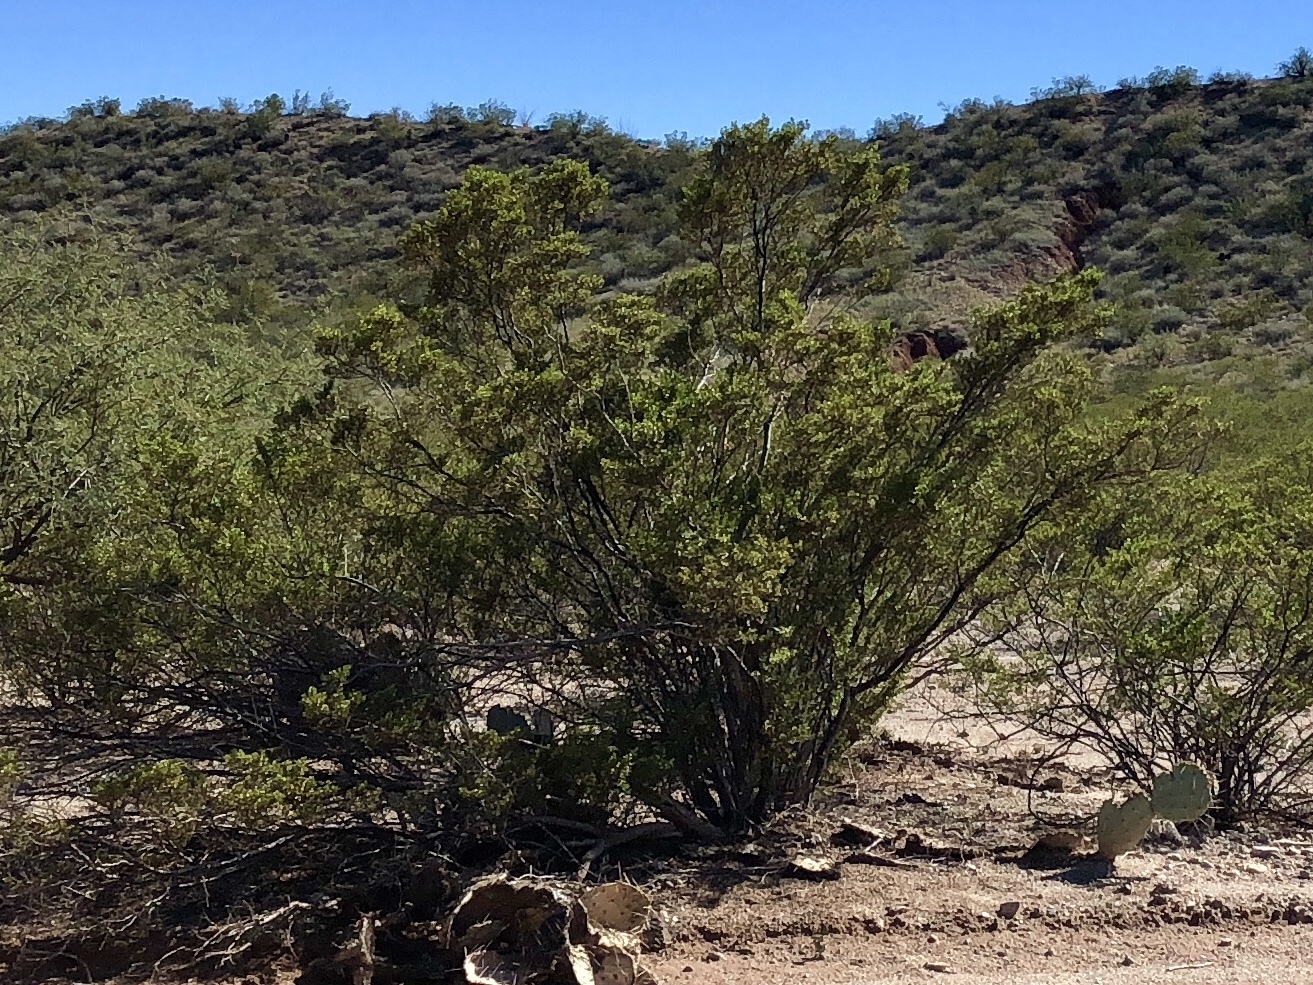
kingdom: Plantae
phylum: Tracheophyta
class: Magnoliopsida
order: Zygophyllales
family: Zygophyllaceae
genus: Larrea
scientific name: Larrea tridentata
